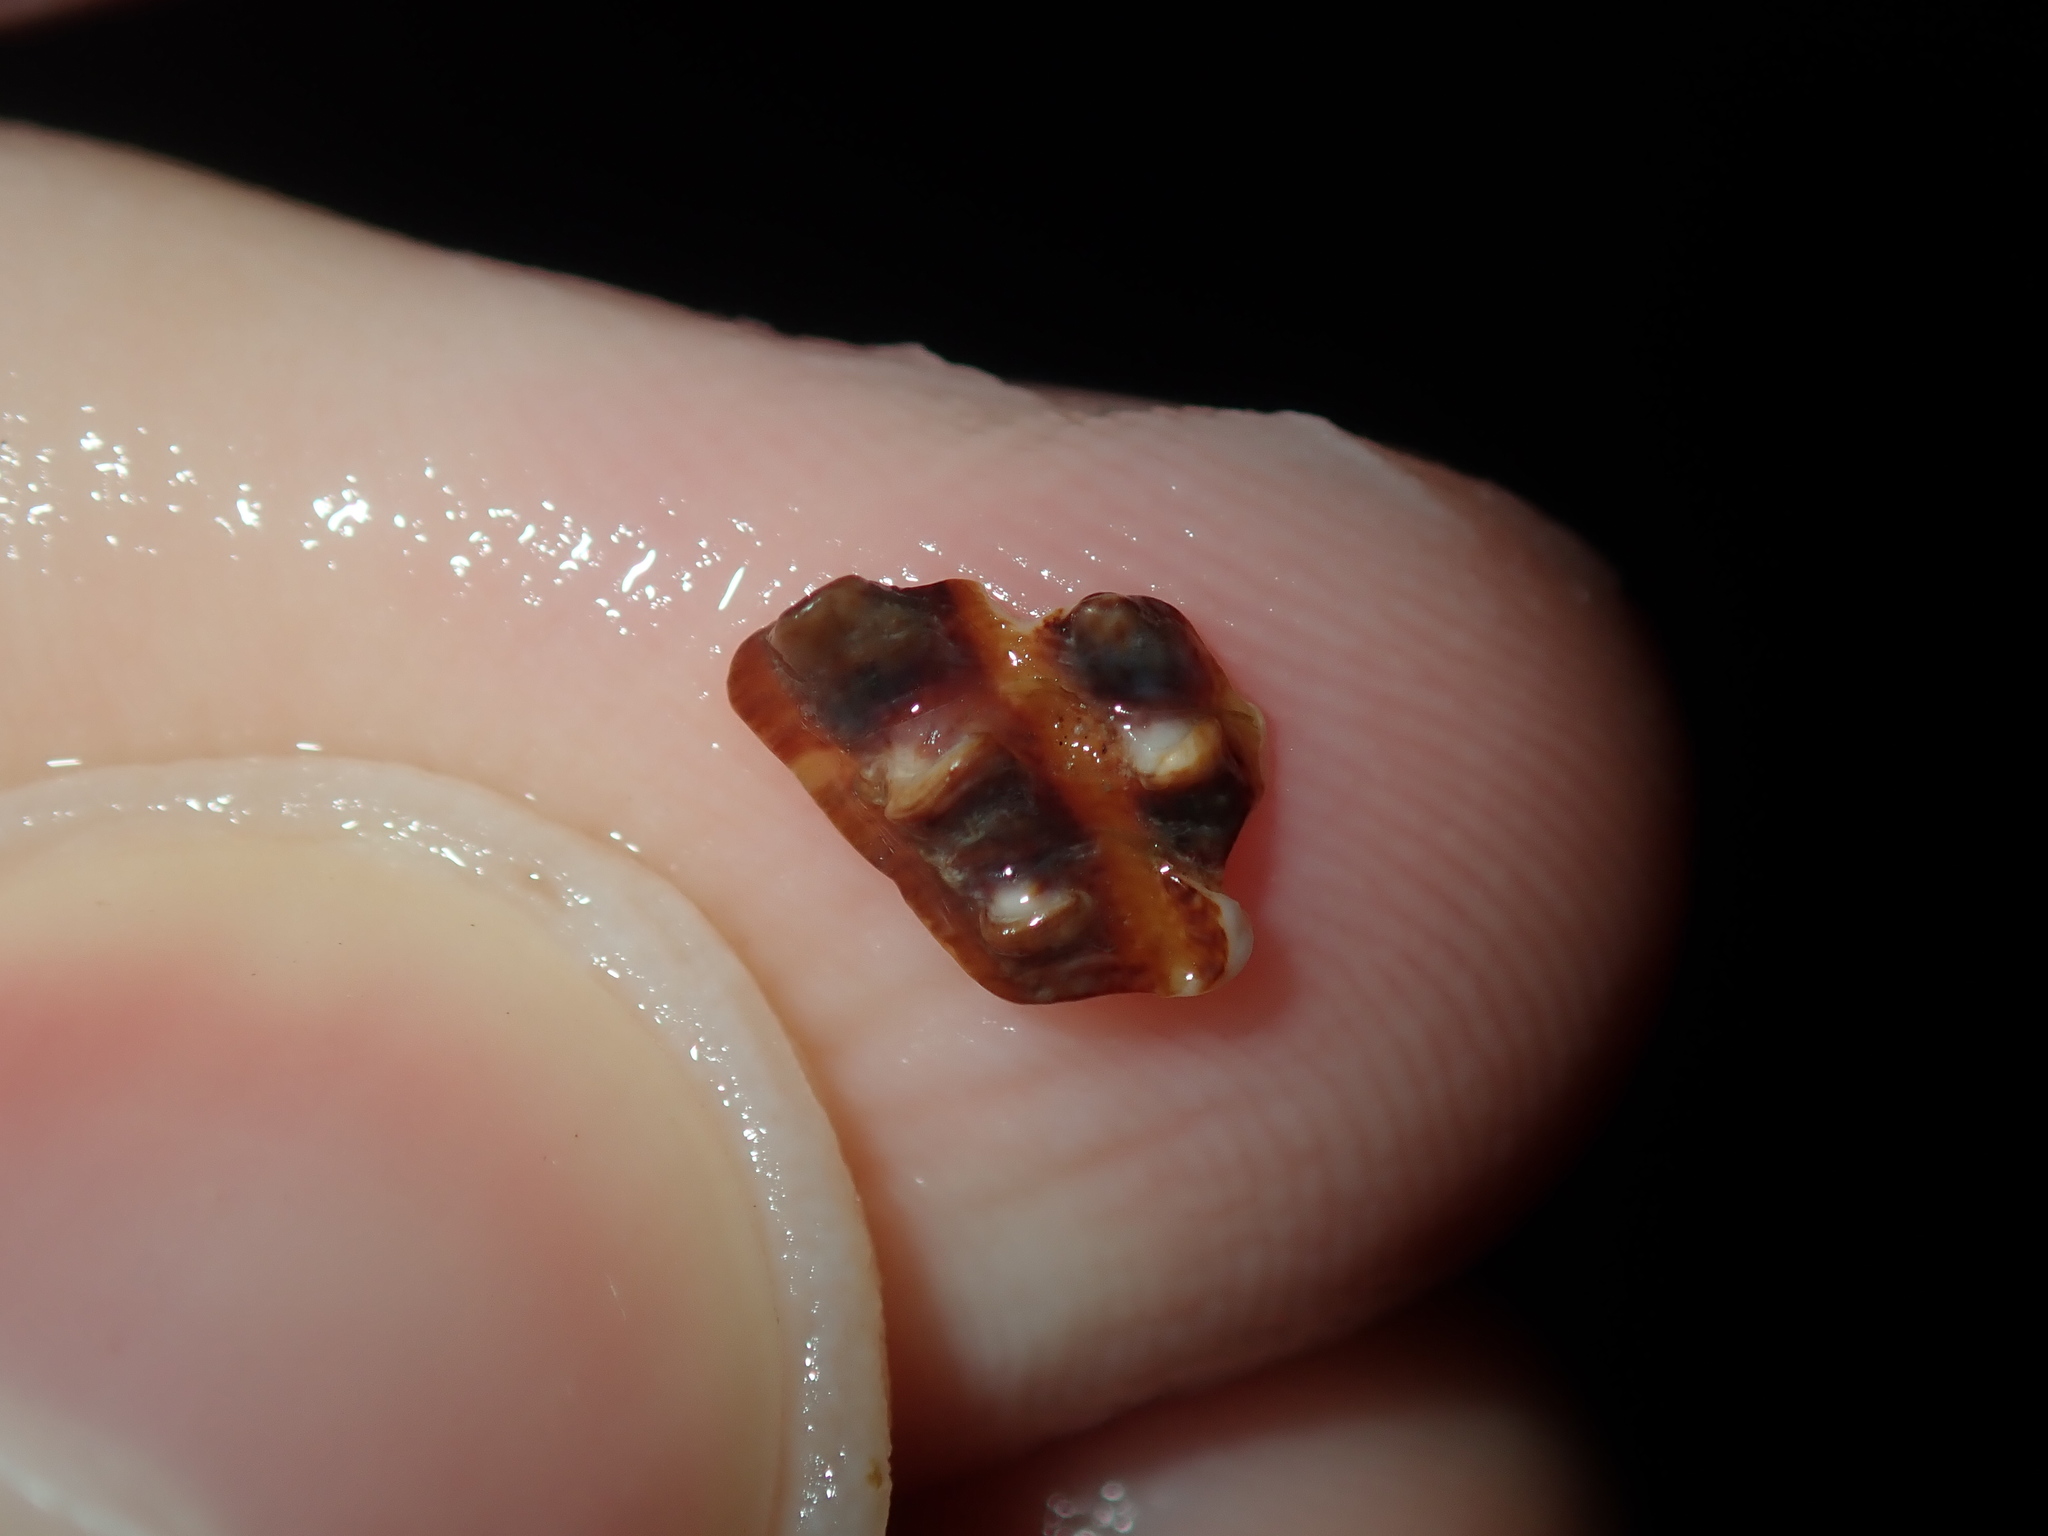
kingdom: Animalia
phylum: Mollusca
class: Bivalvia
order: Pectinida
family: Pectinidae
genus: Scaeochlamys
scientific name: Scaeochlamys livida
